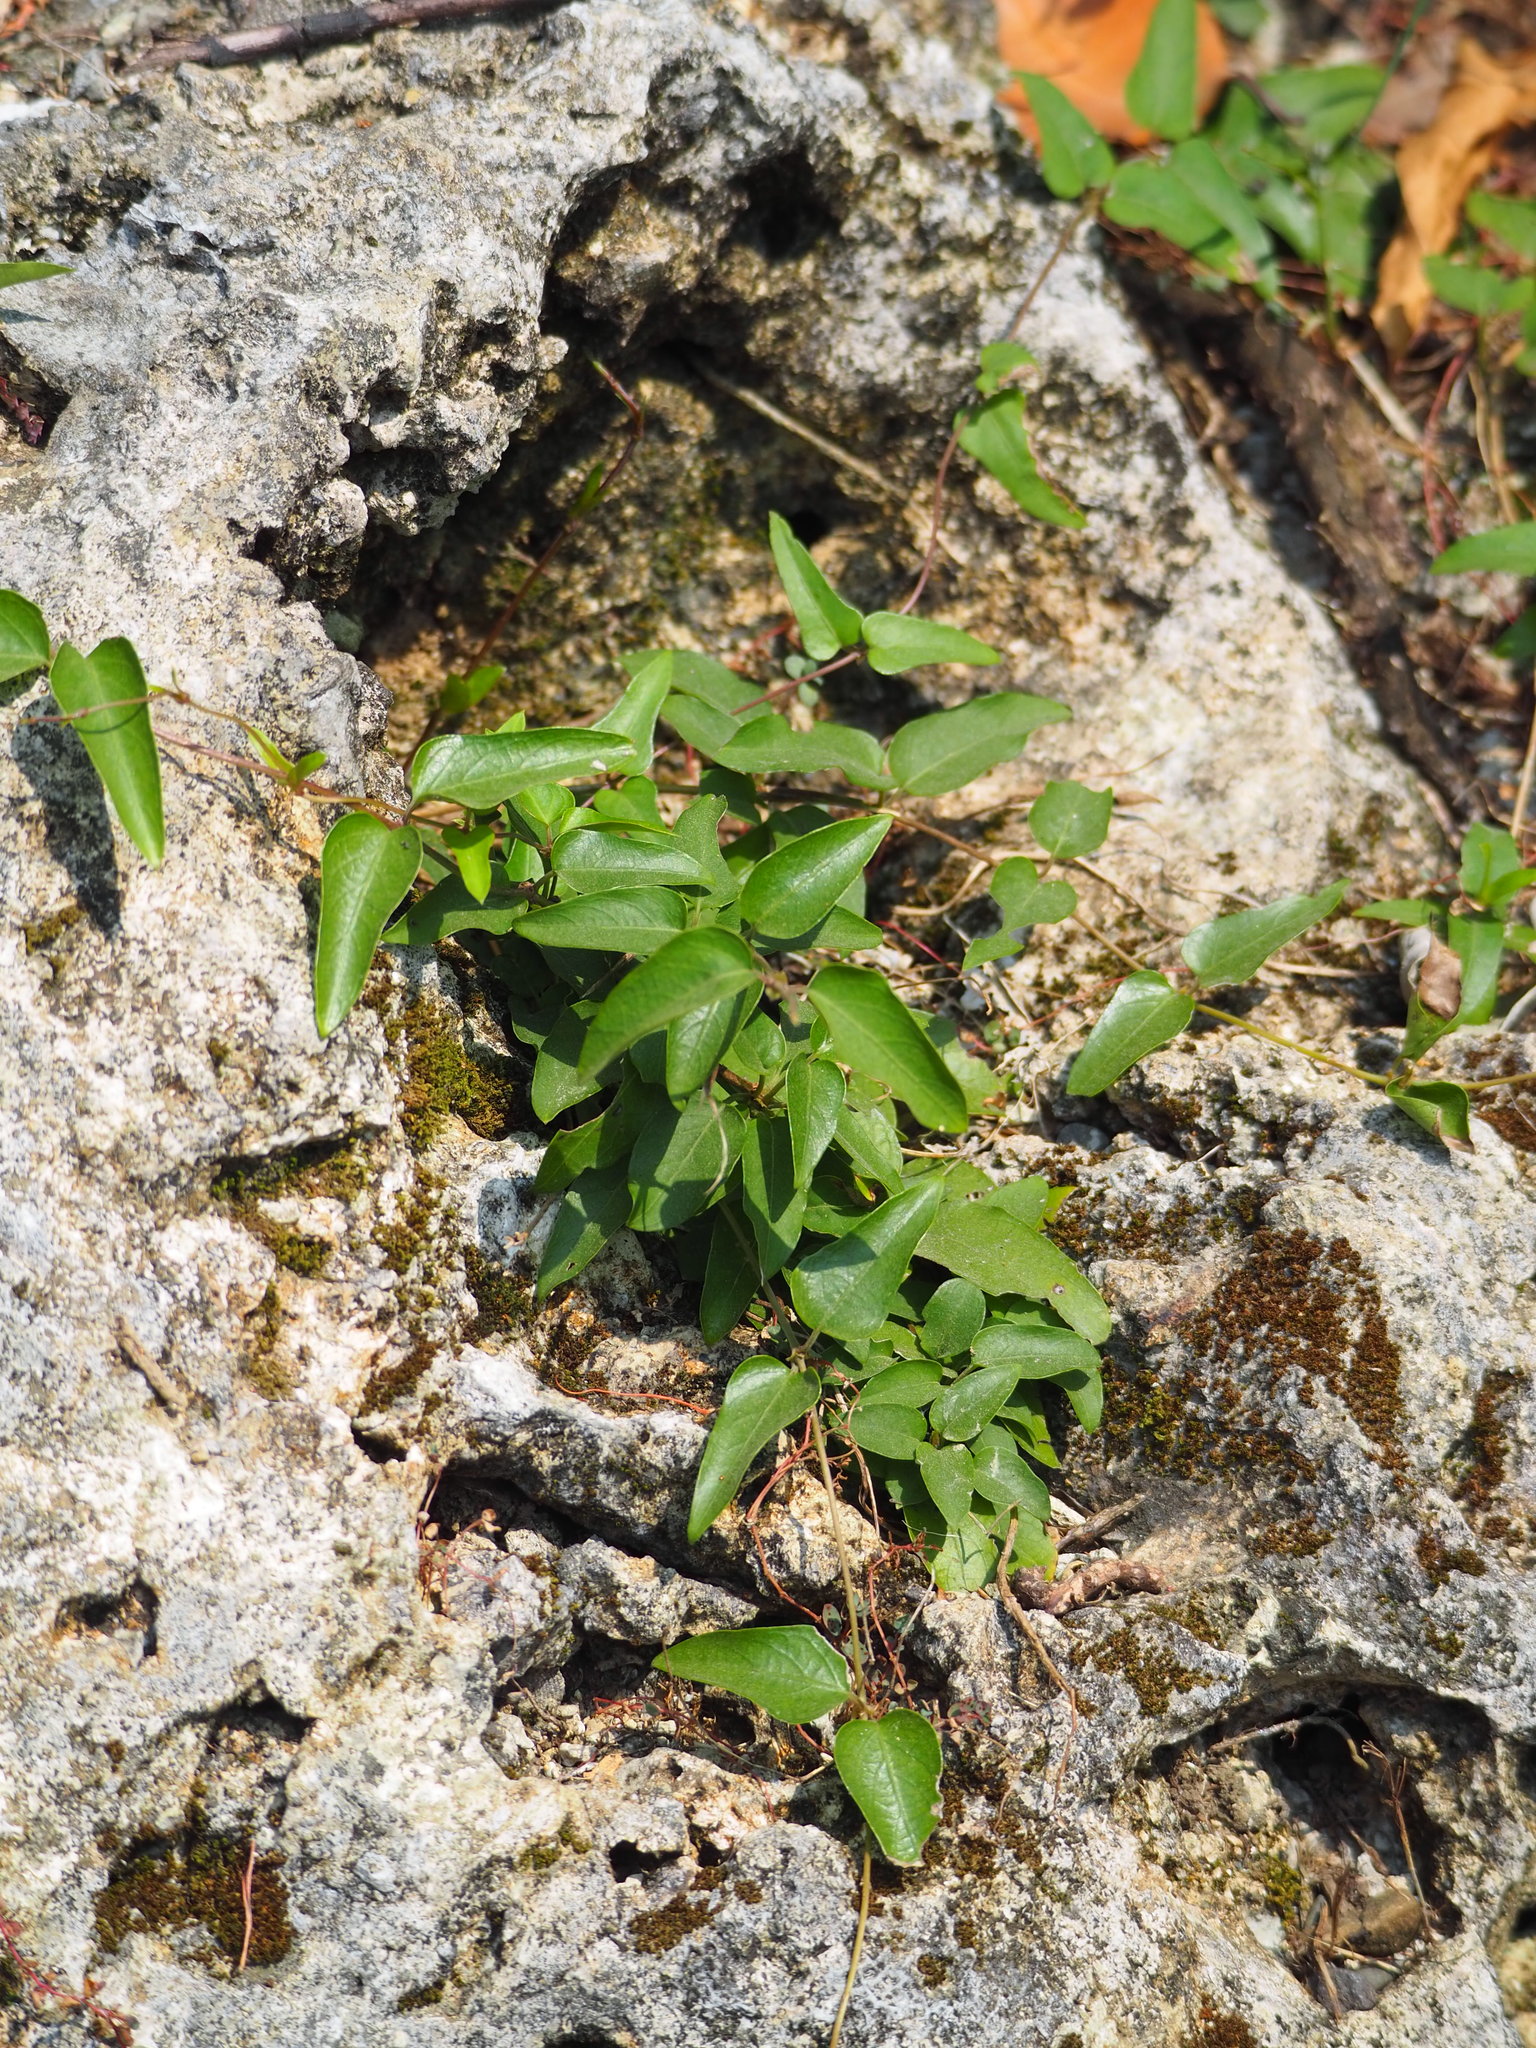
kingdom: Plantae
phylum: Tracheophyta
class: Magnoliopsida
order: Gentianales
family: Rubiaceae
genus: Paederia
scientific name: Paederia foetida
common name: Stinkvine
